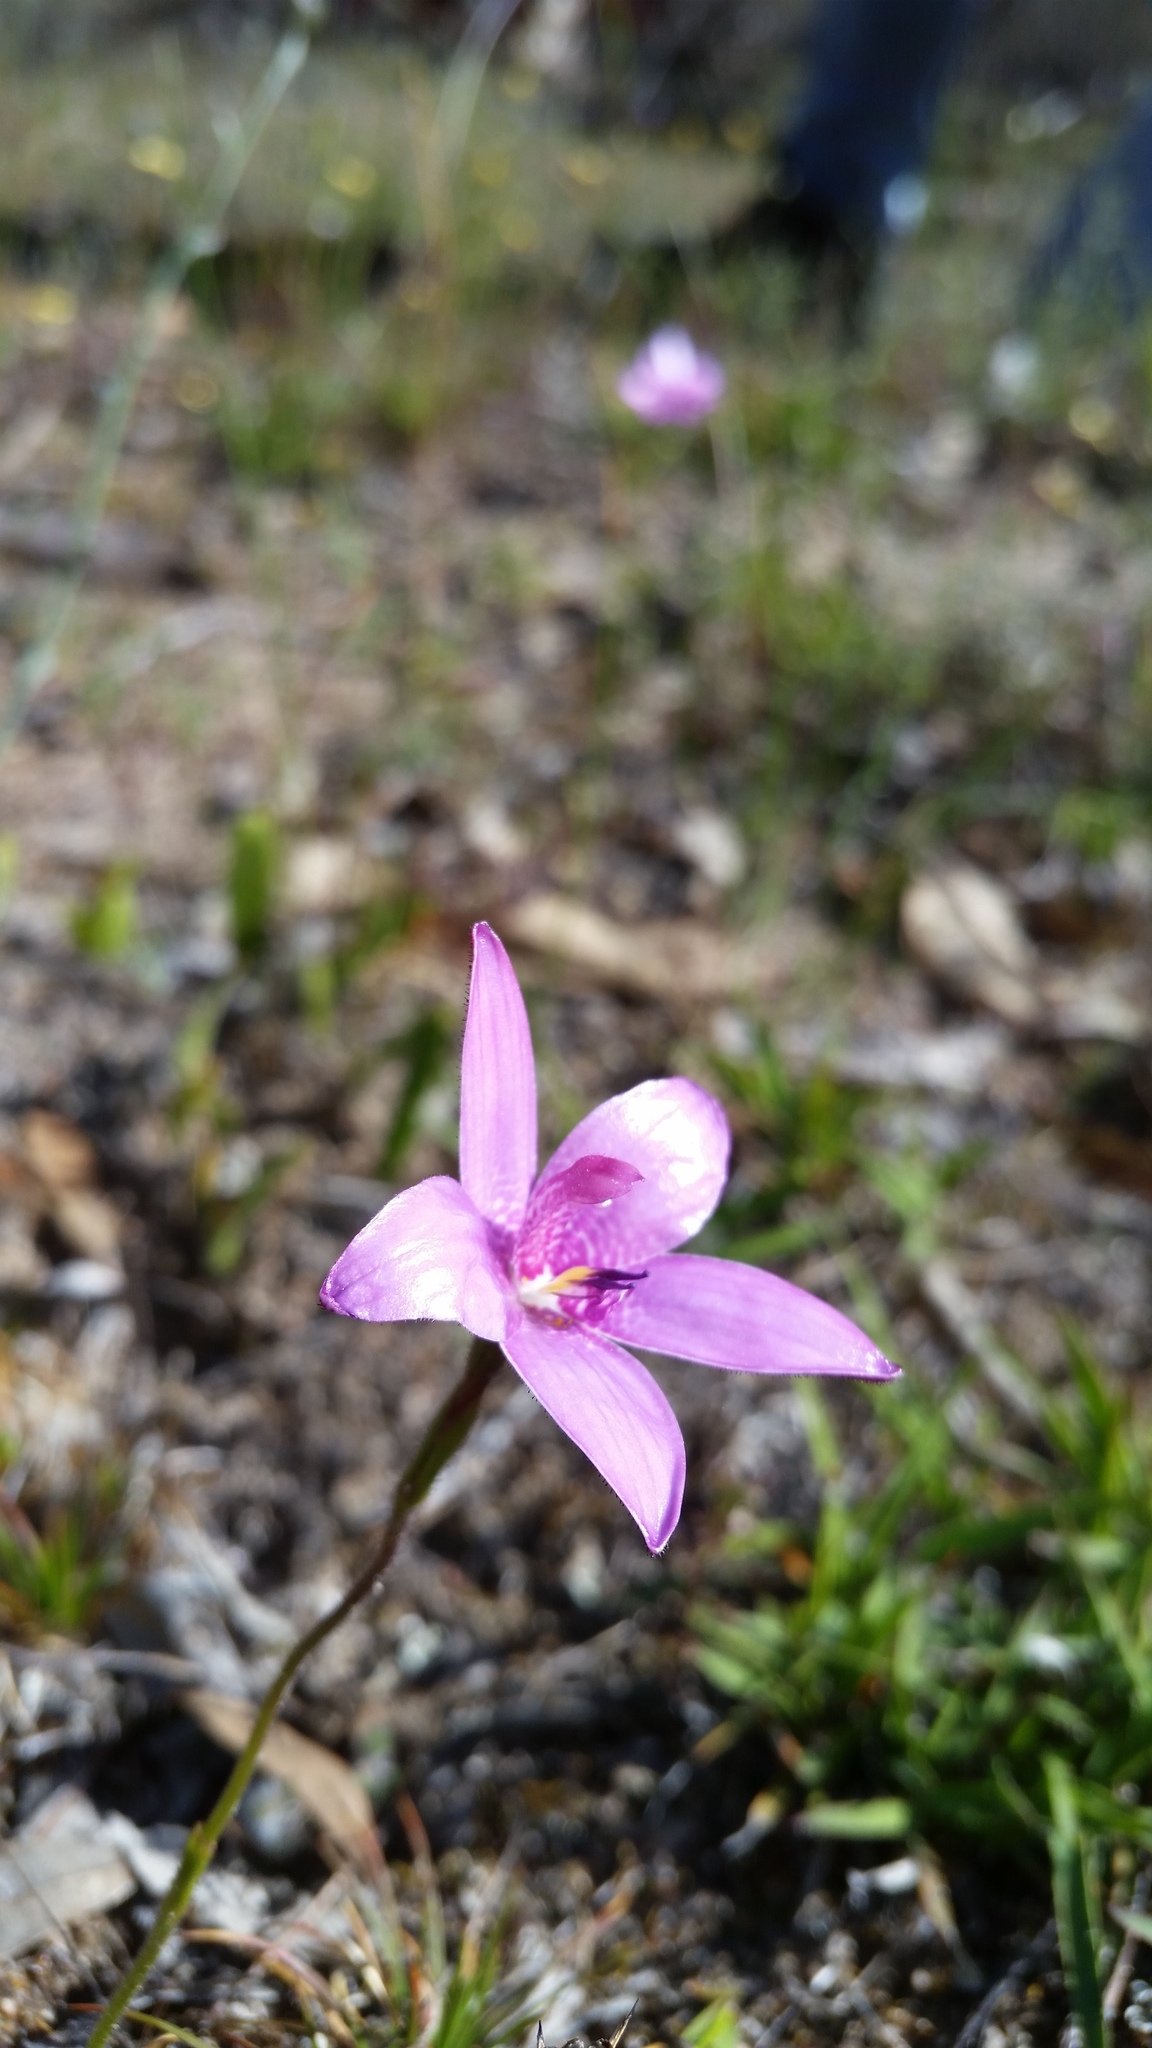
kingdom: Plantae
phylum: Tracheophyta
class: Liliopsida
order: Asparagales
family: Orchidaceae
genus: Caladenia
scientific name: Caladenia emarginata
